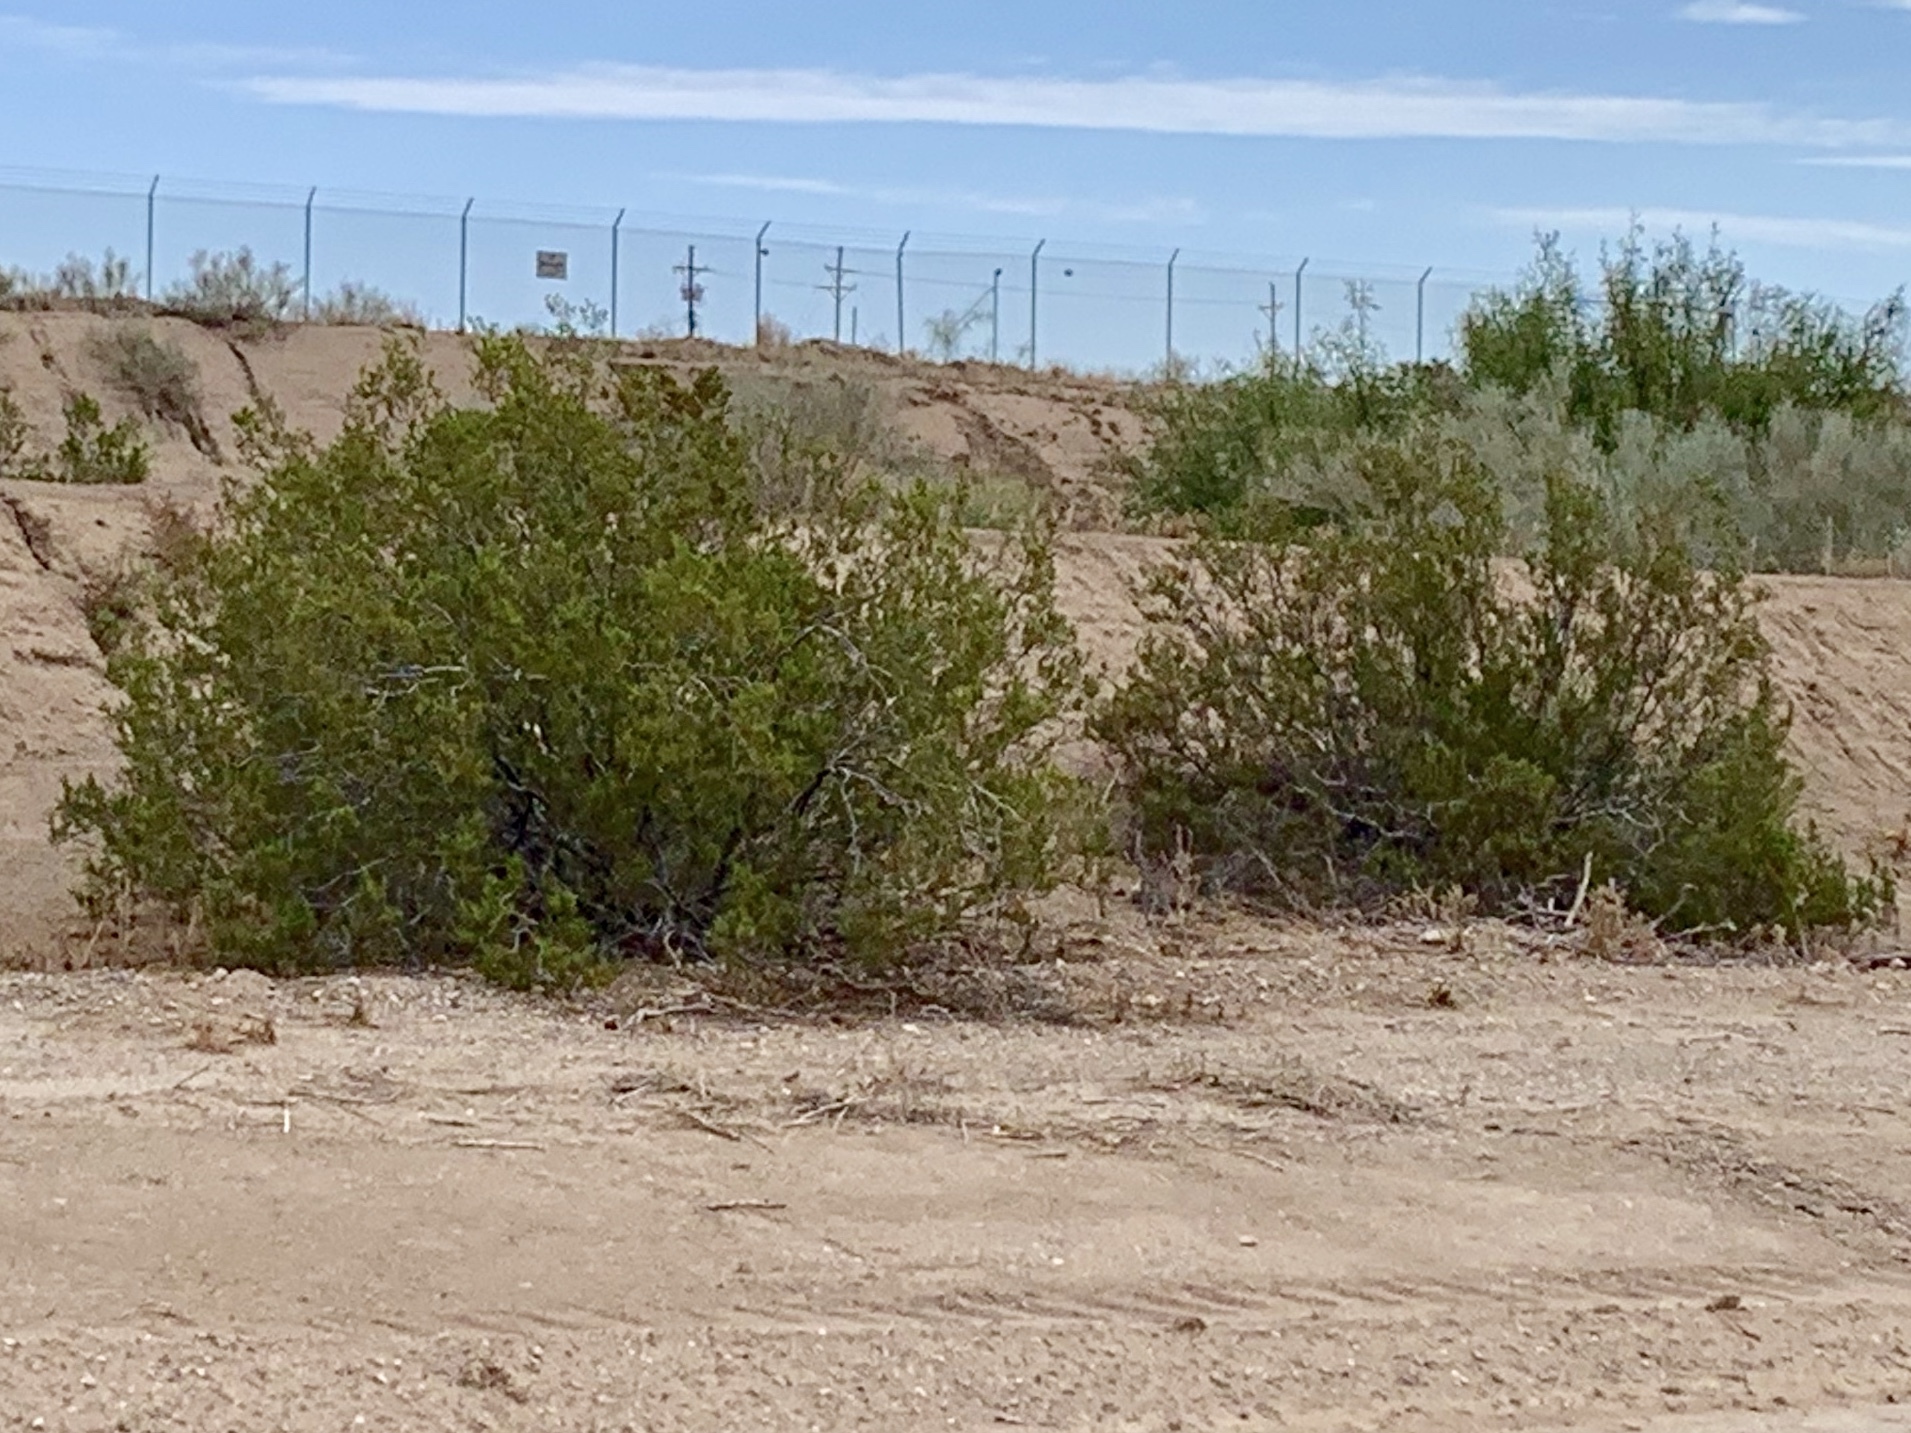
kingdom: Plantae
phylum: Tracheophyta
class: Magnoliopsida
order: Zygophyllales
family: Zygophyllaceae
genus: Larrea
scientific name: Larrea tridentata
